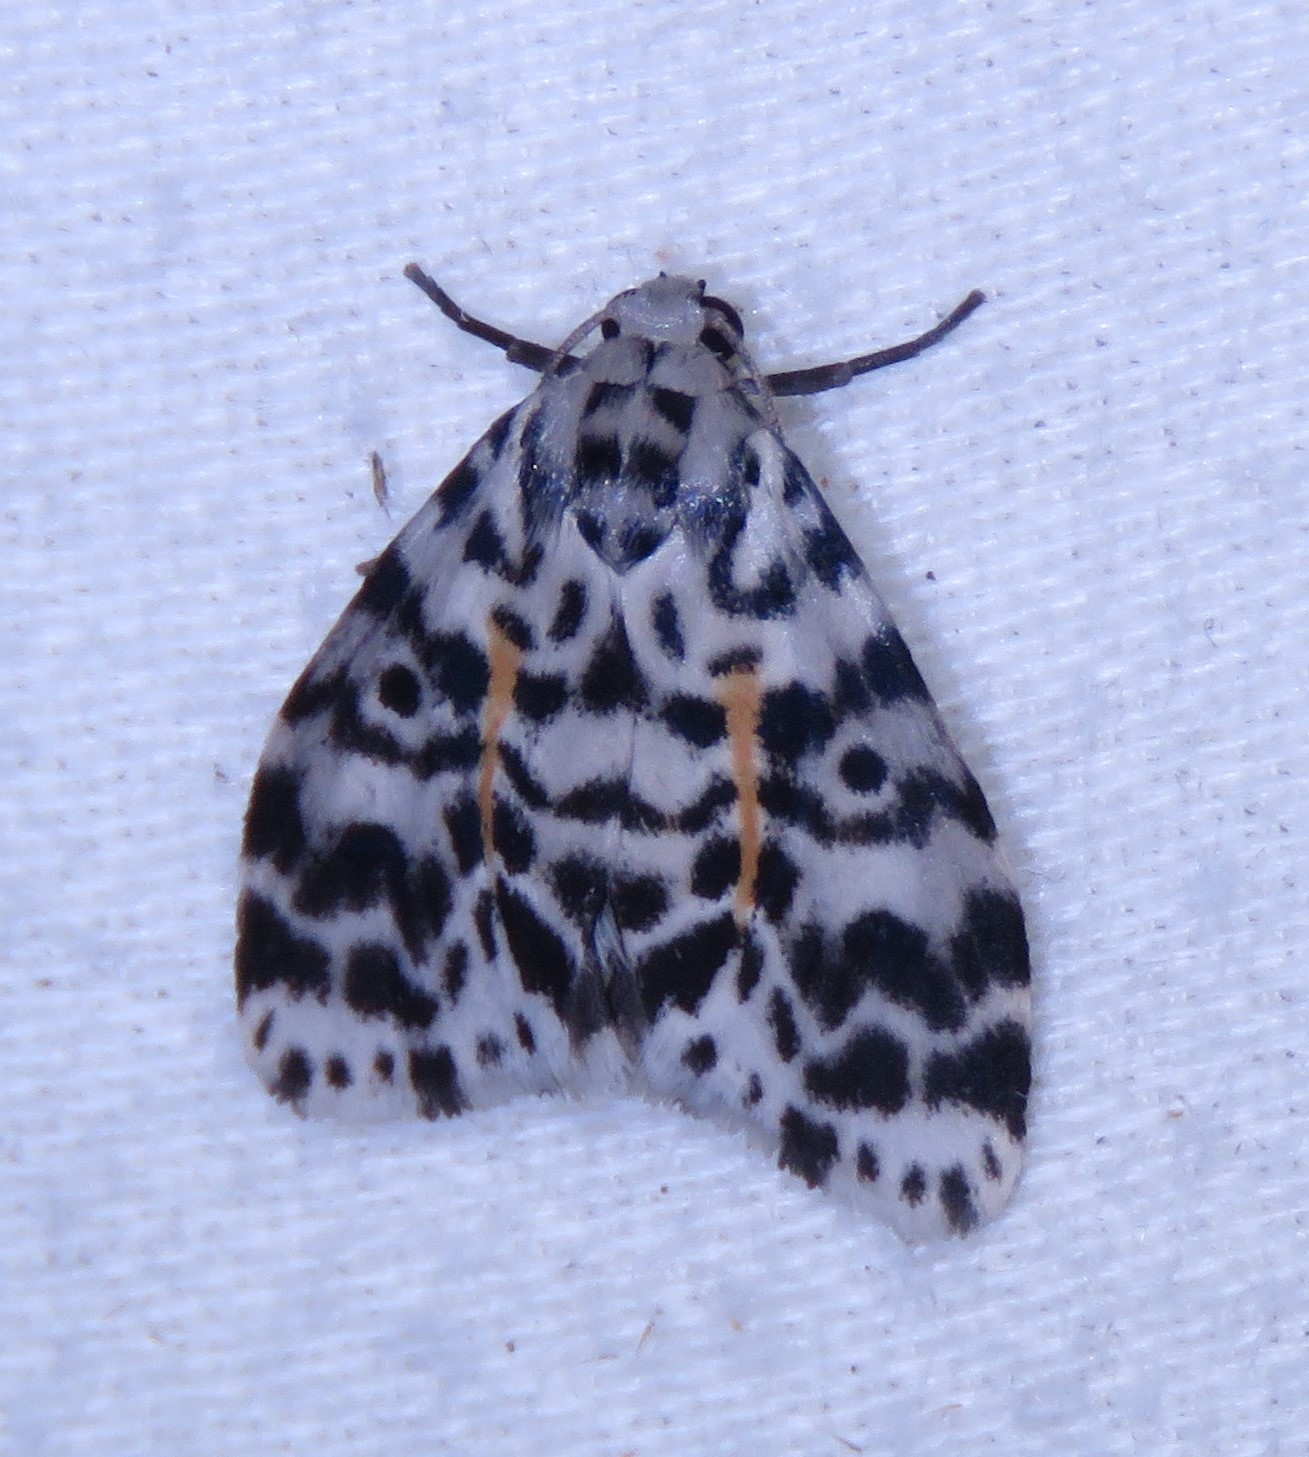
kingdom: Animalia
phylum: Arthropoda
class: Insecta
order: Lepidoptera
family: Erebidae
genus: Clemensia
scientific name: Clemensia leopardina
